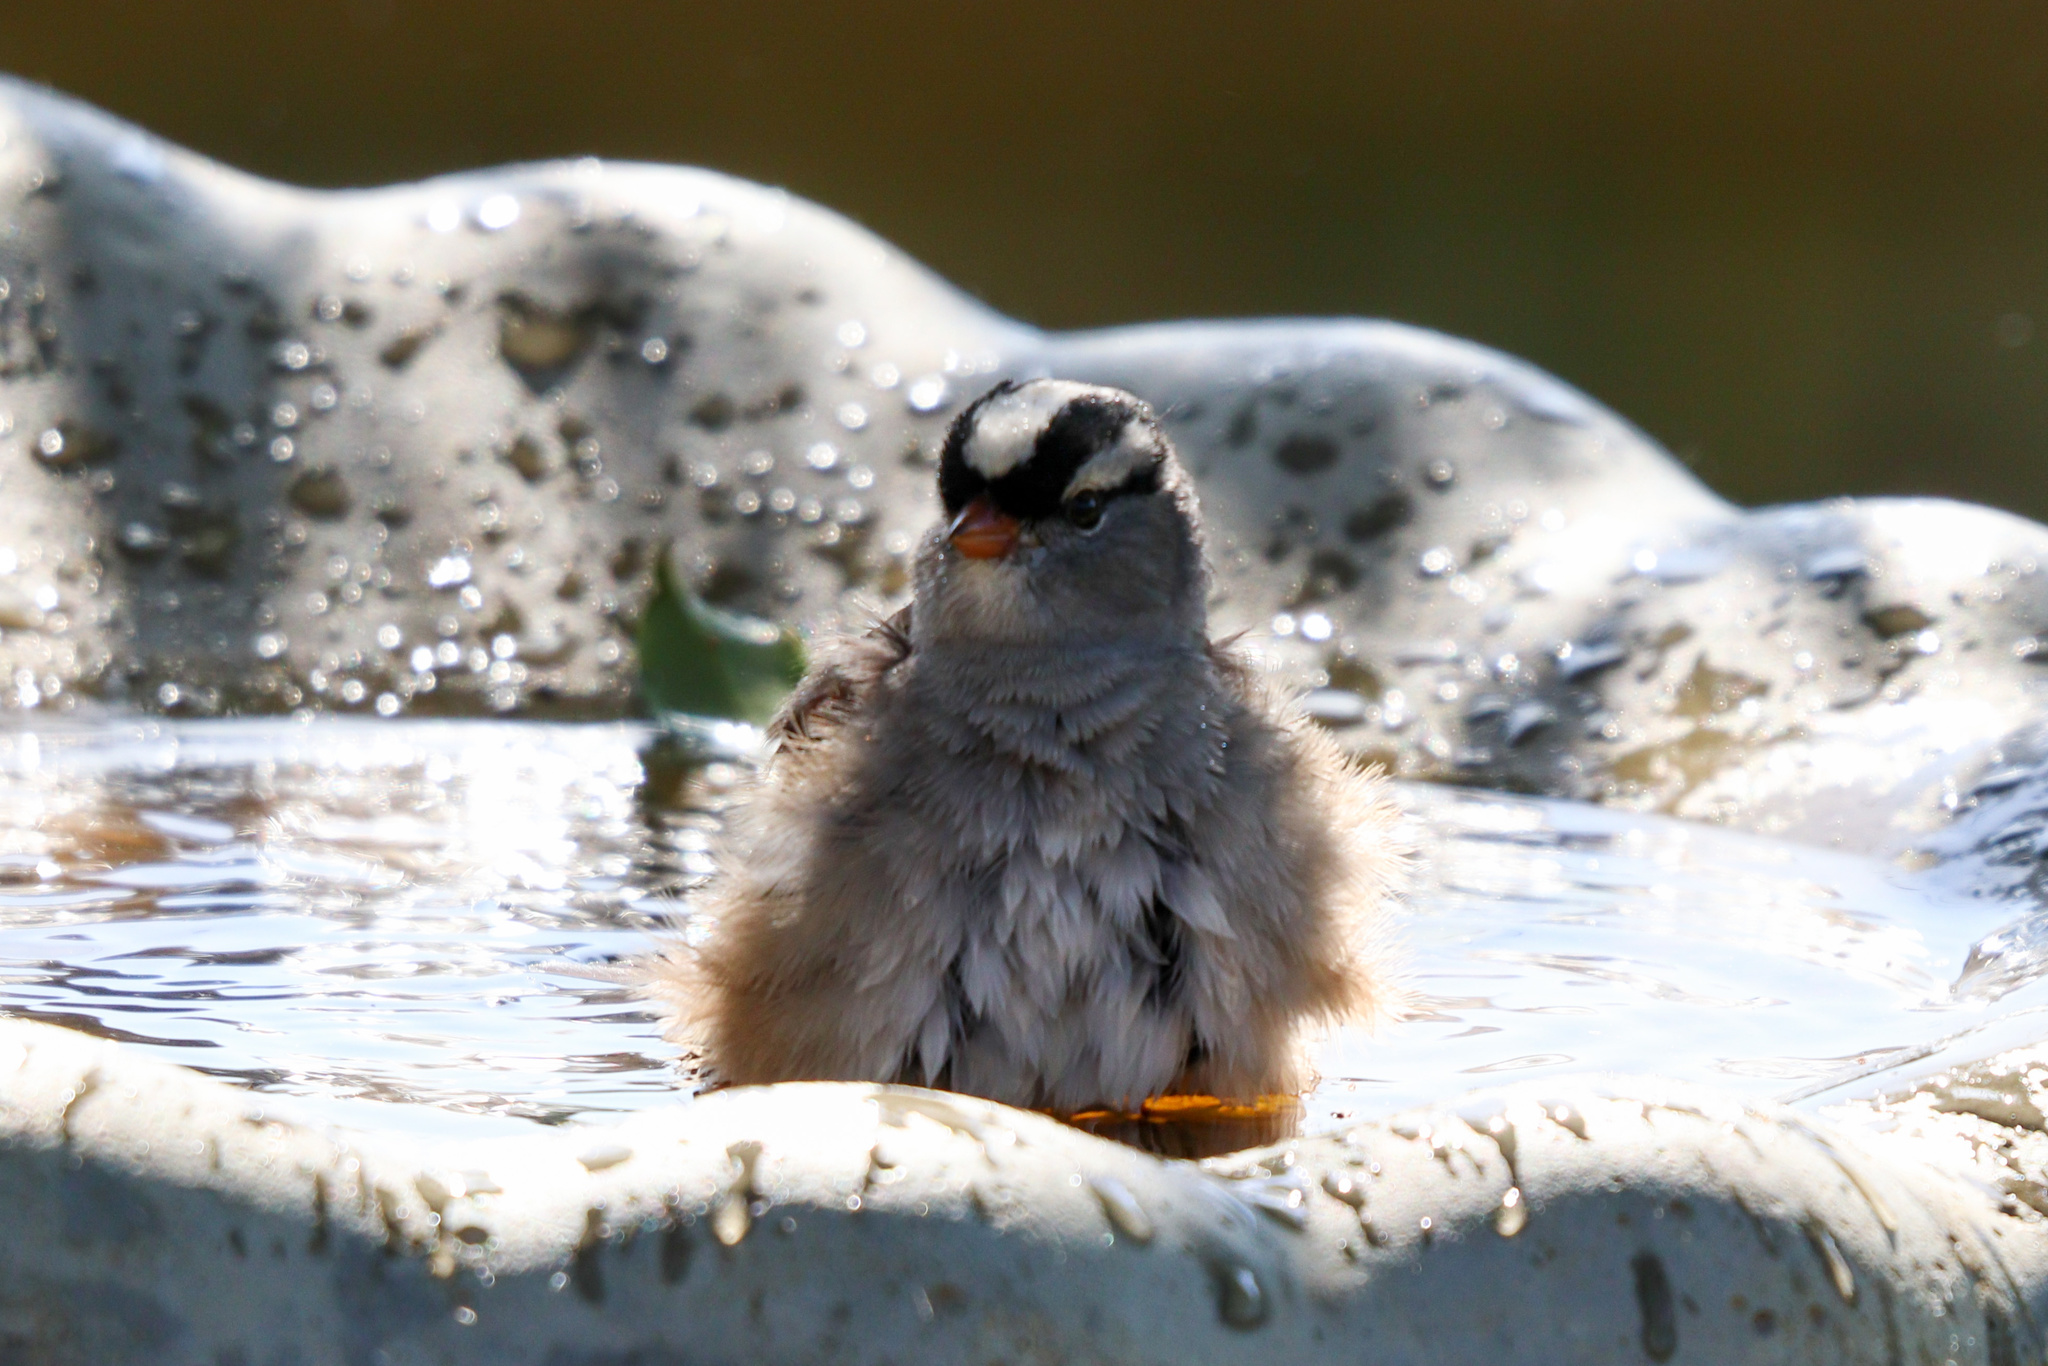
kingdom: Animalia
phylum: Chordata
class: Aves
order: Passeriformes
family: Passerellidae
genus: Zonotrichia
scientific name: Zonotrichia leucophrys
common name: White-crowned sparrow
